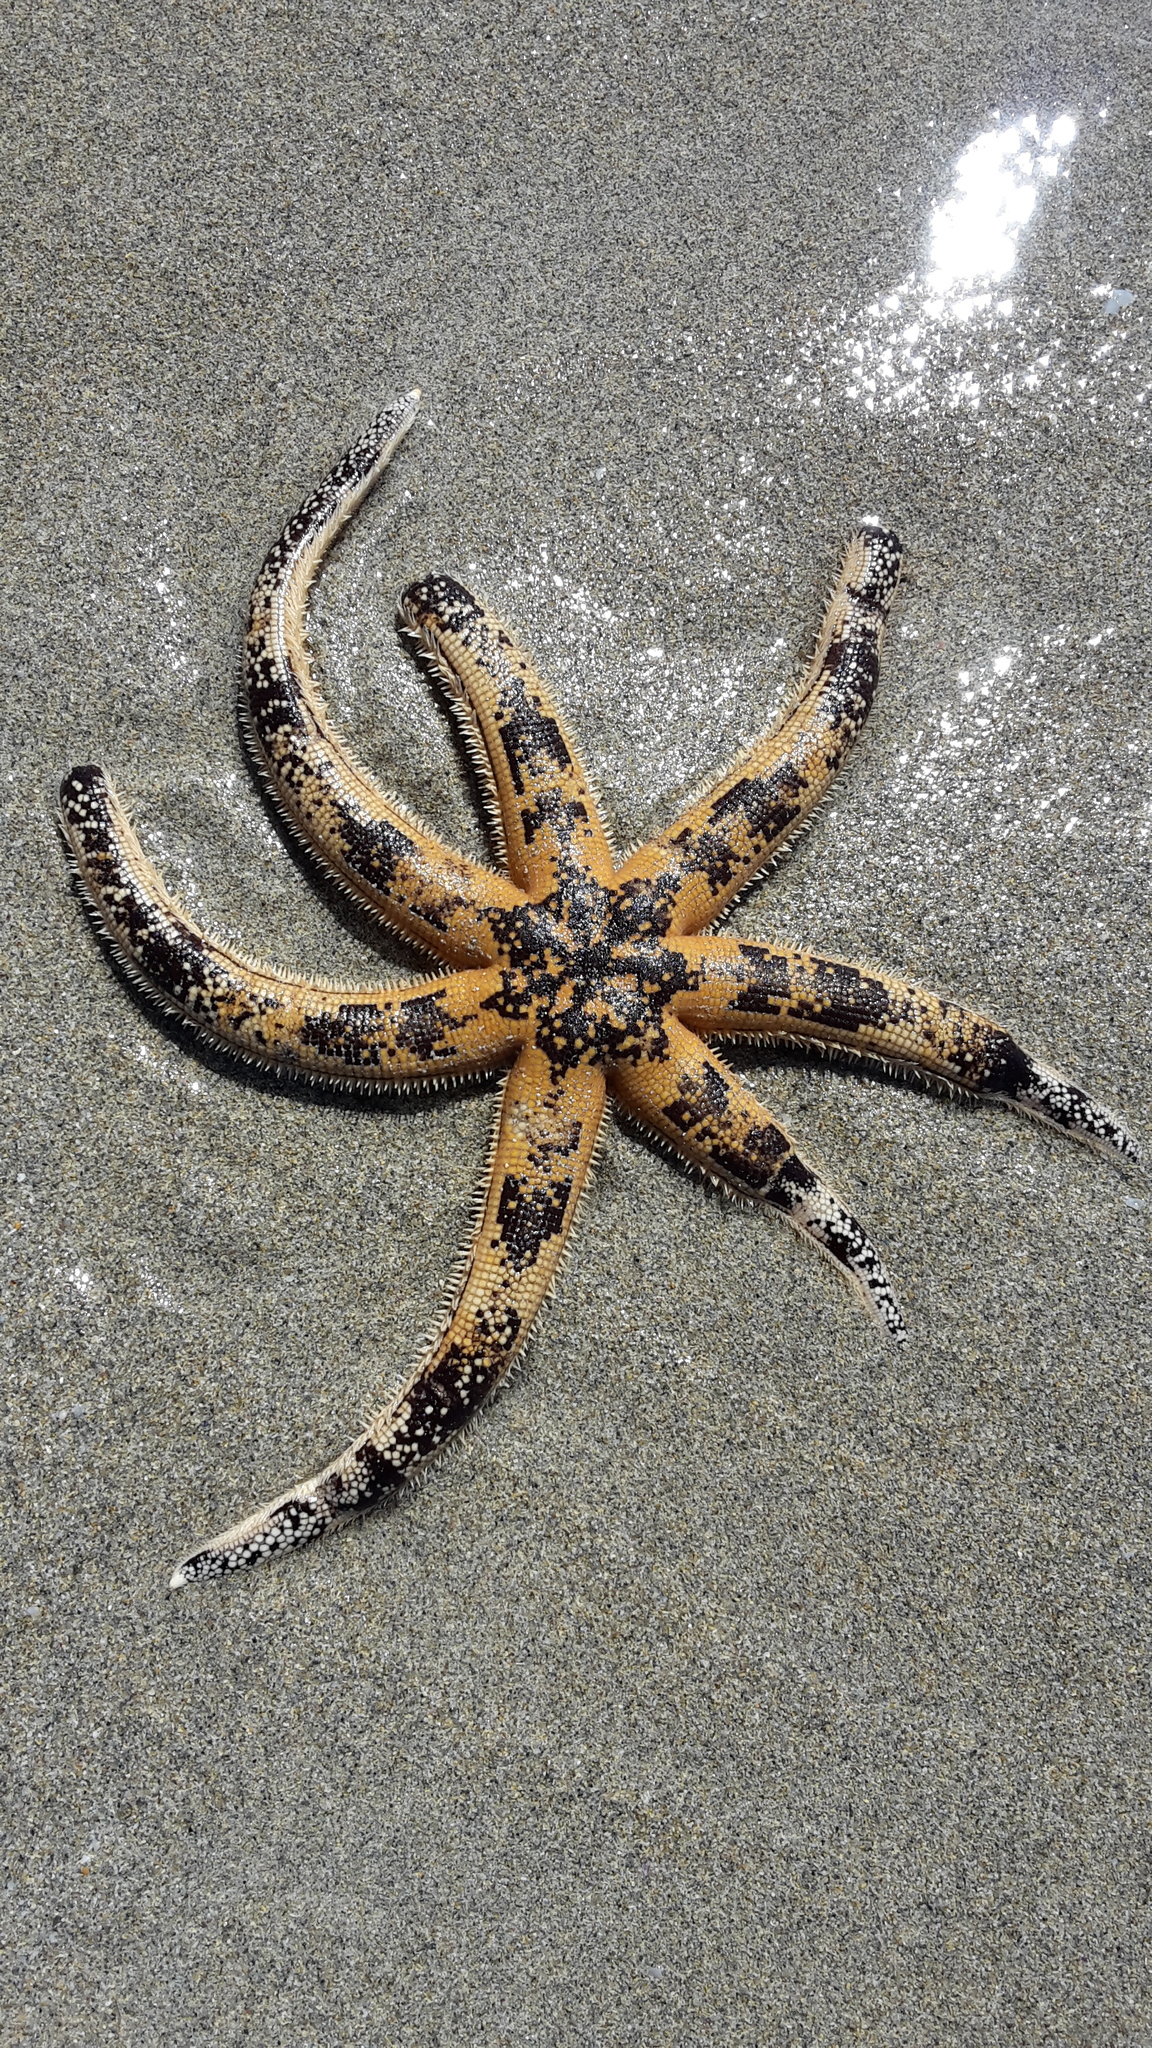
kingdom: Animalia
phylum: Echinodermata
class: Asteroidea
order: Paxillosida
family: Luidiidae
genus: Luidia
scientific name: Luidia australiae
